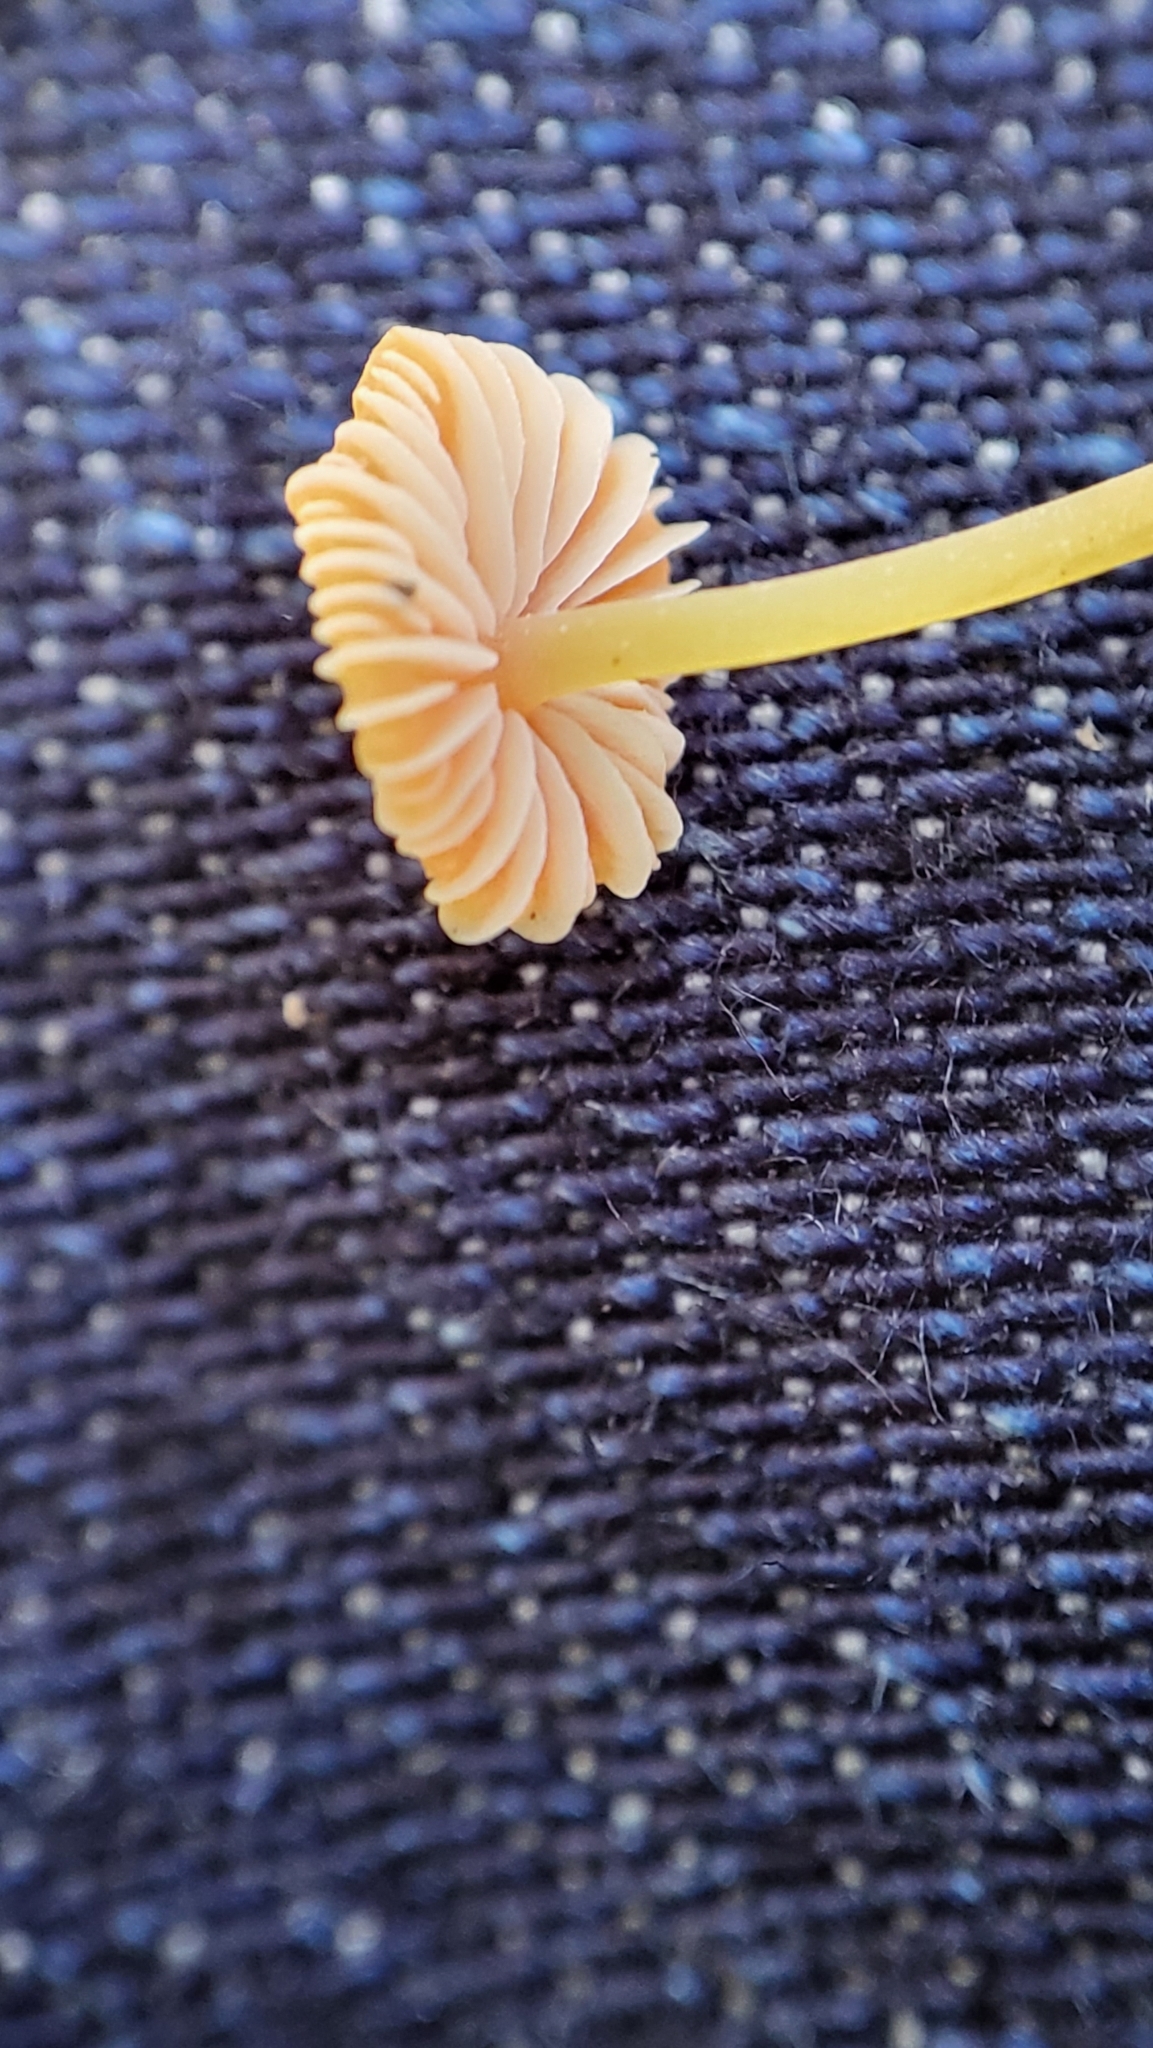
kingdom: Fungi
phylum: Basidiomycota
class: Agaricomycetes
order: Agaricales
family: Mycenaceae
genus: Mycena
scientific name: Mycena acicula
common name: Orange bonnet
